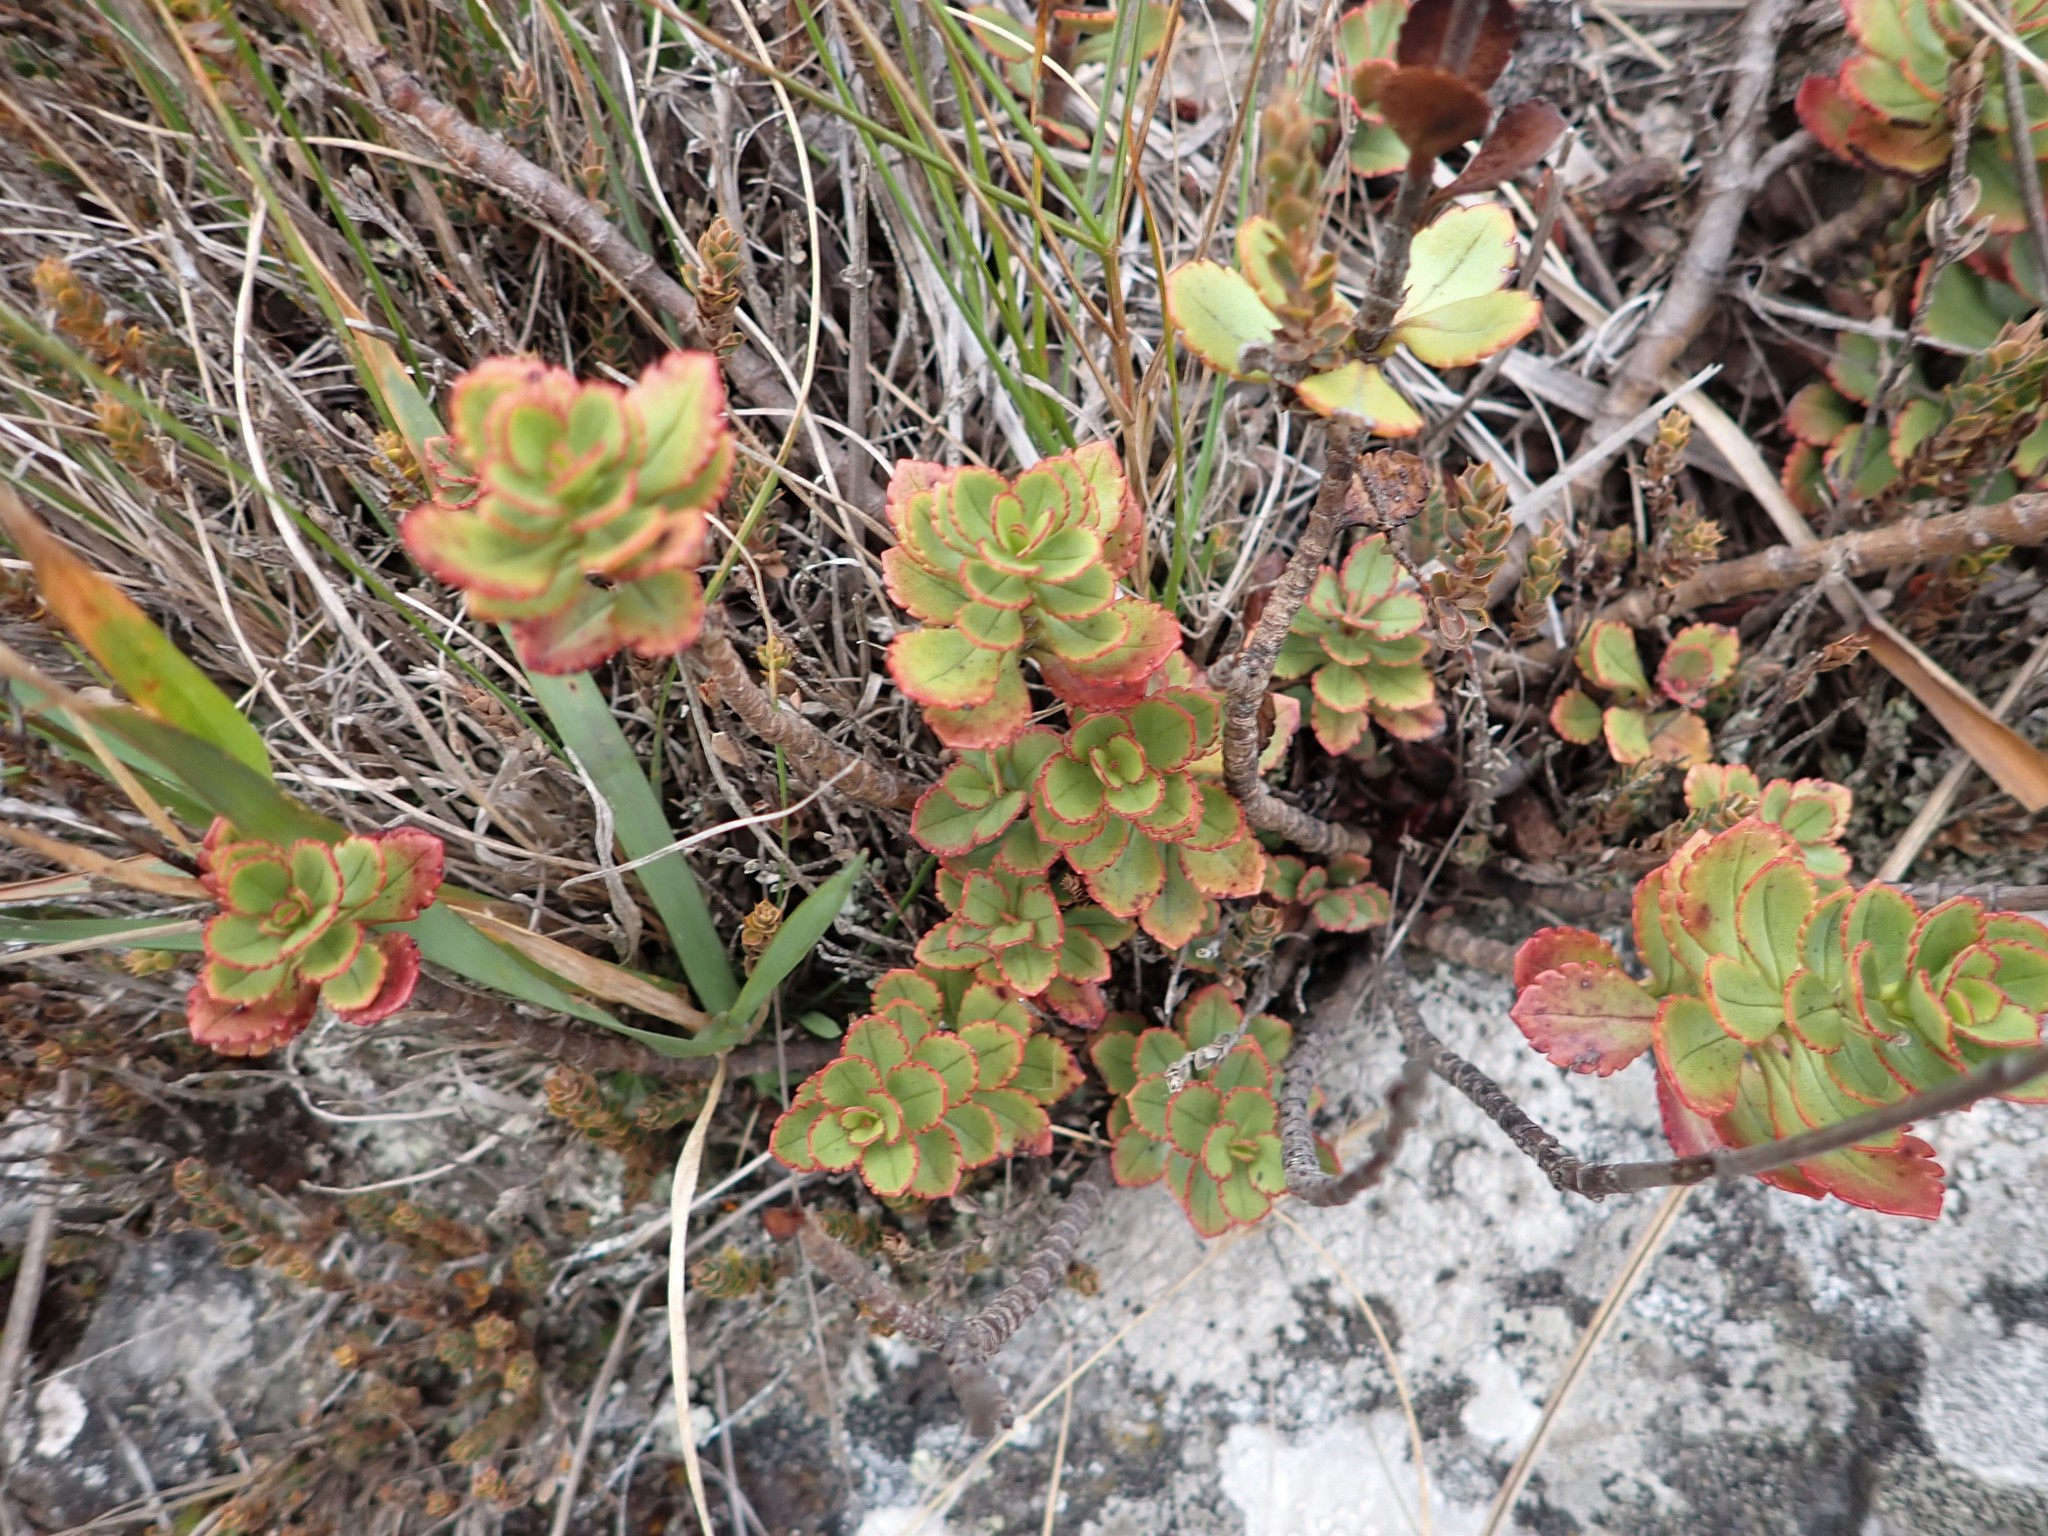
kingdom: Plantae
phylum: Tracheophyta
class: Magnoliopsida
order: Lamiales
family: Plantaginaceae
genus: Veronica
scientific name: Veronica lavaudiana
